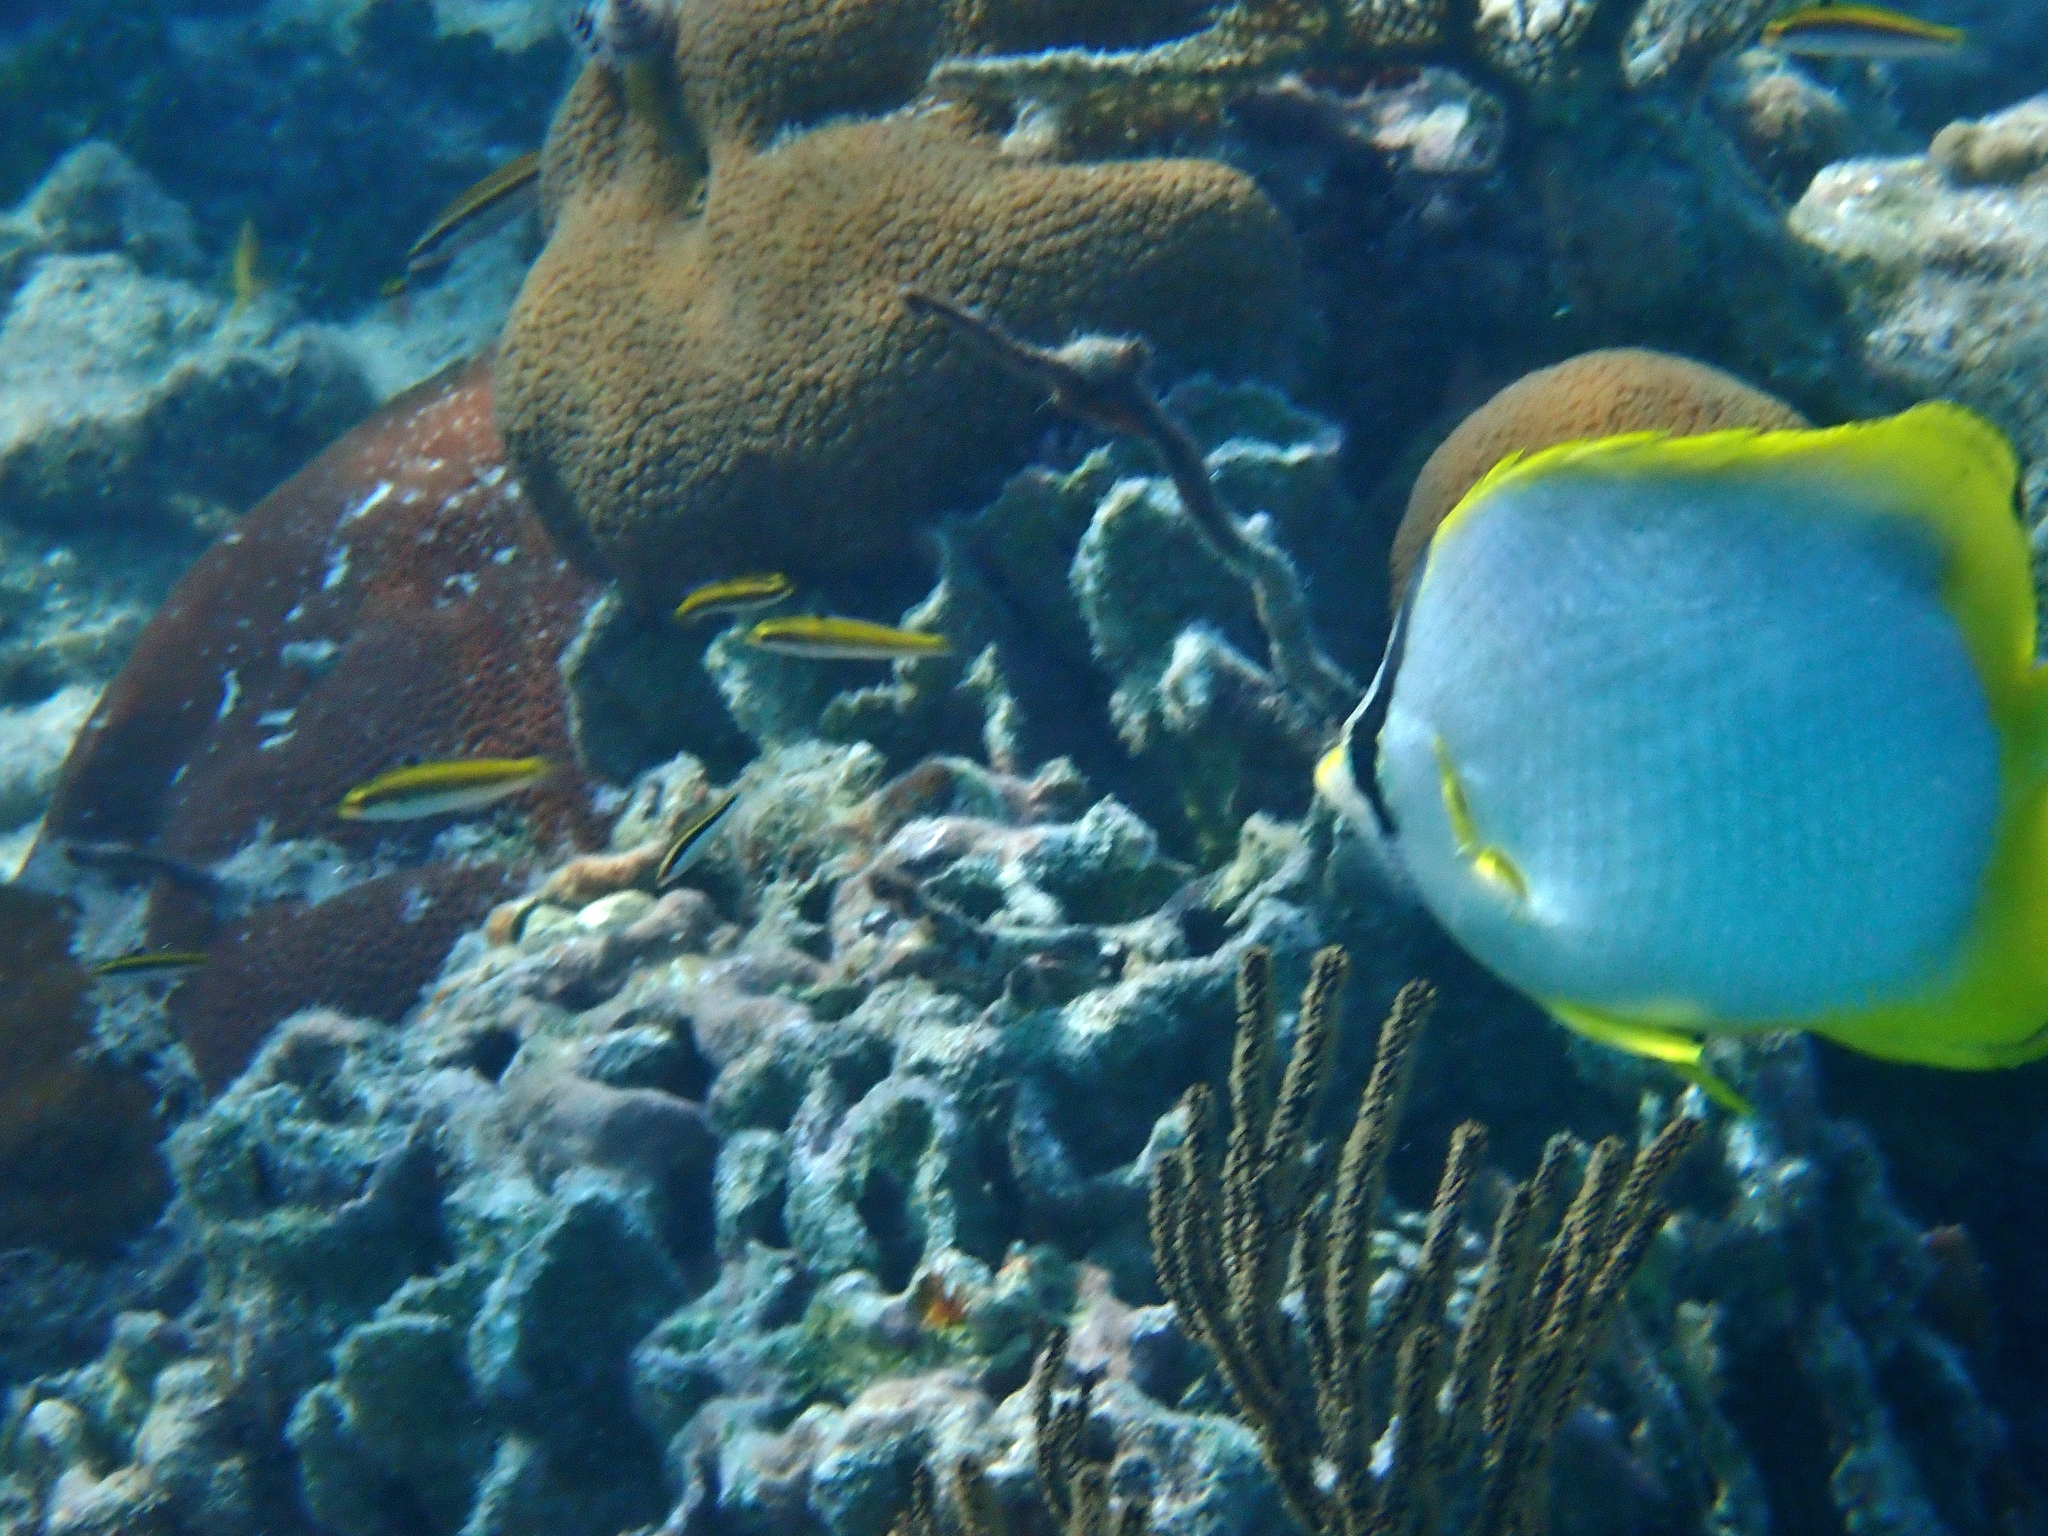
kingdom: Animalia
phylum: Chordata
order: Perciformes
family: Chaetodontidae
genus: Chaetodon
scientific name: Chaetodon ocellatus
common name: Spotfin butterflyfish
